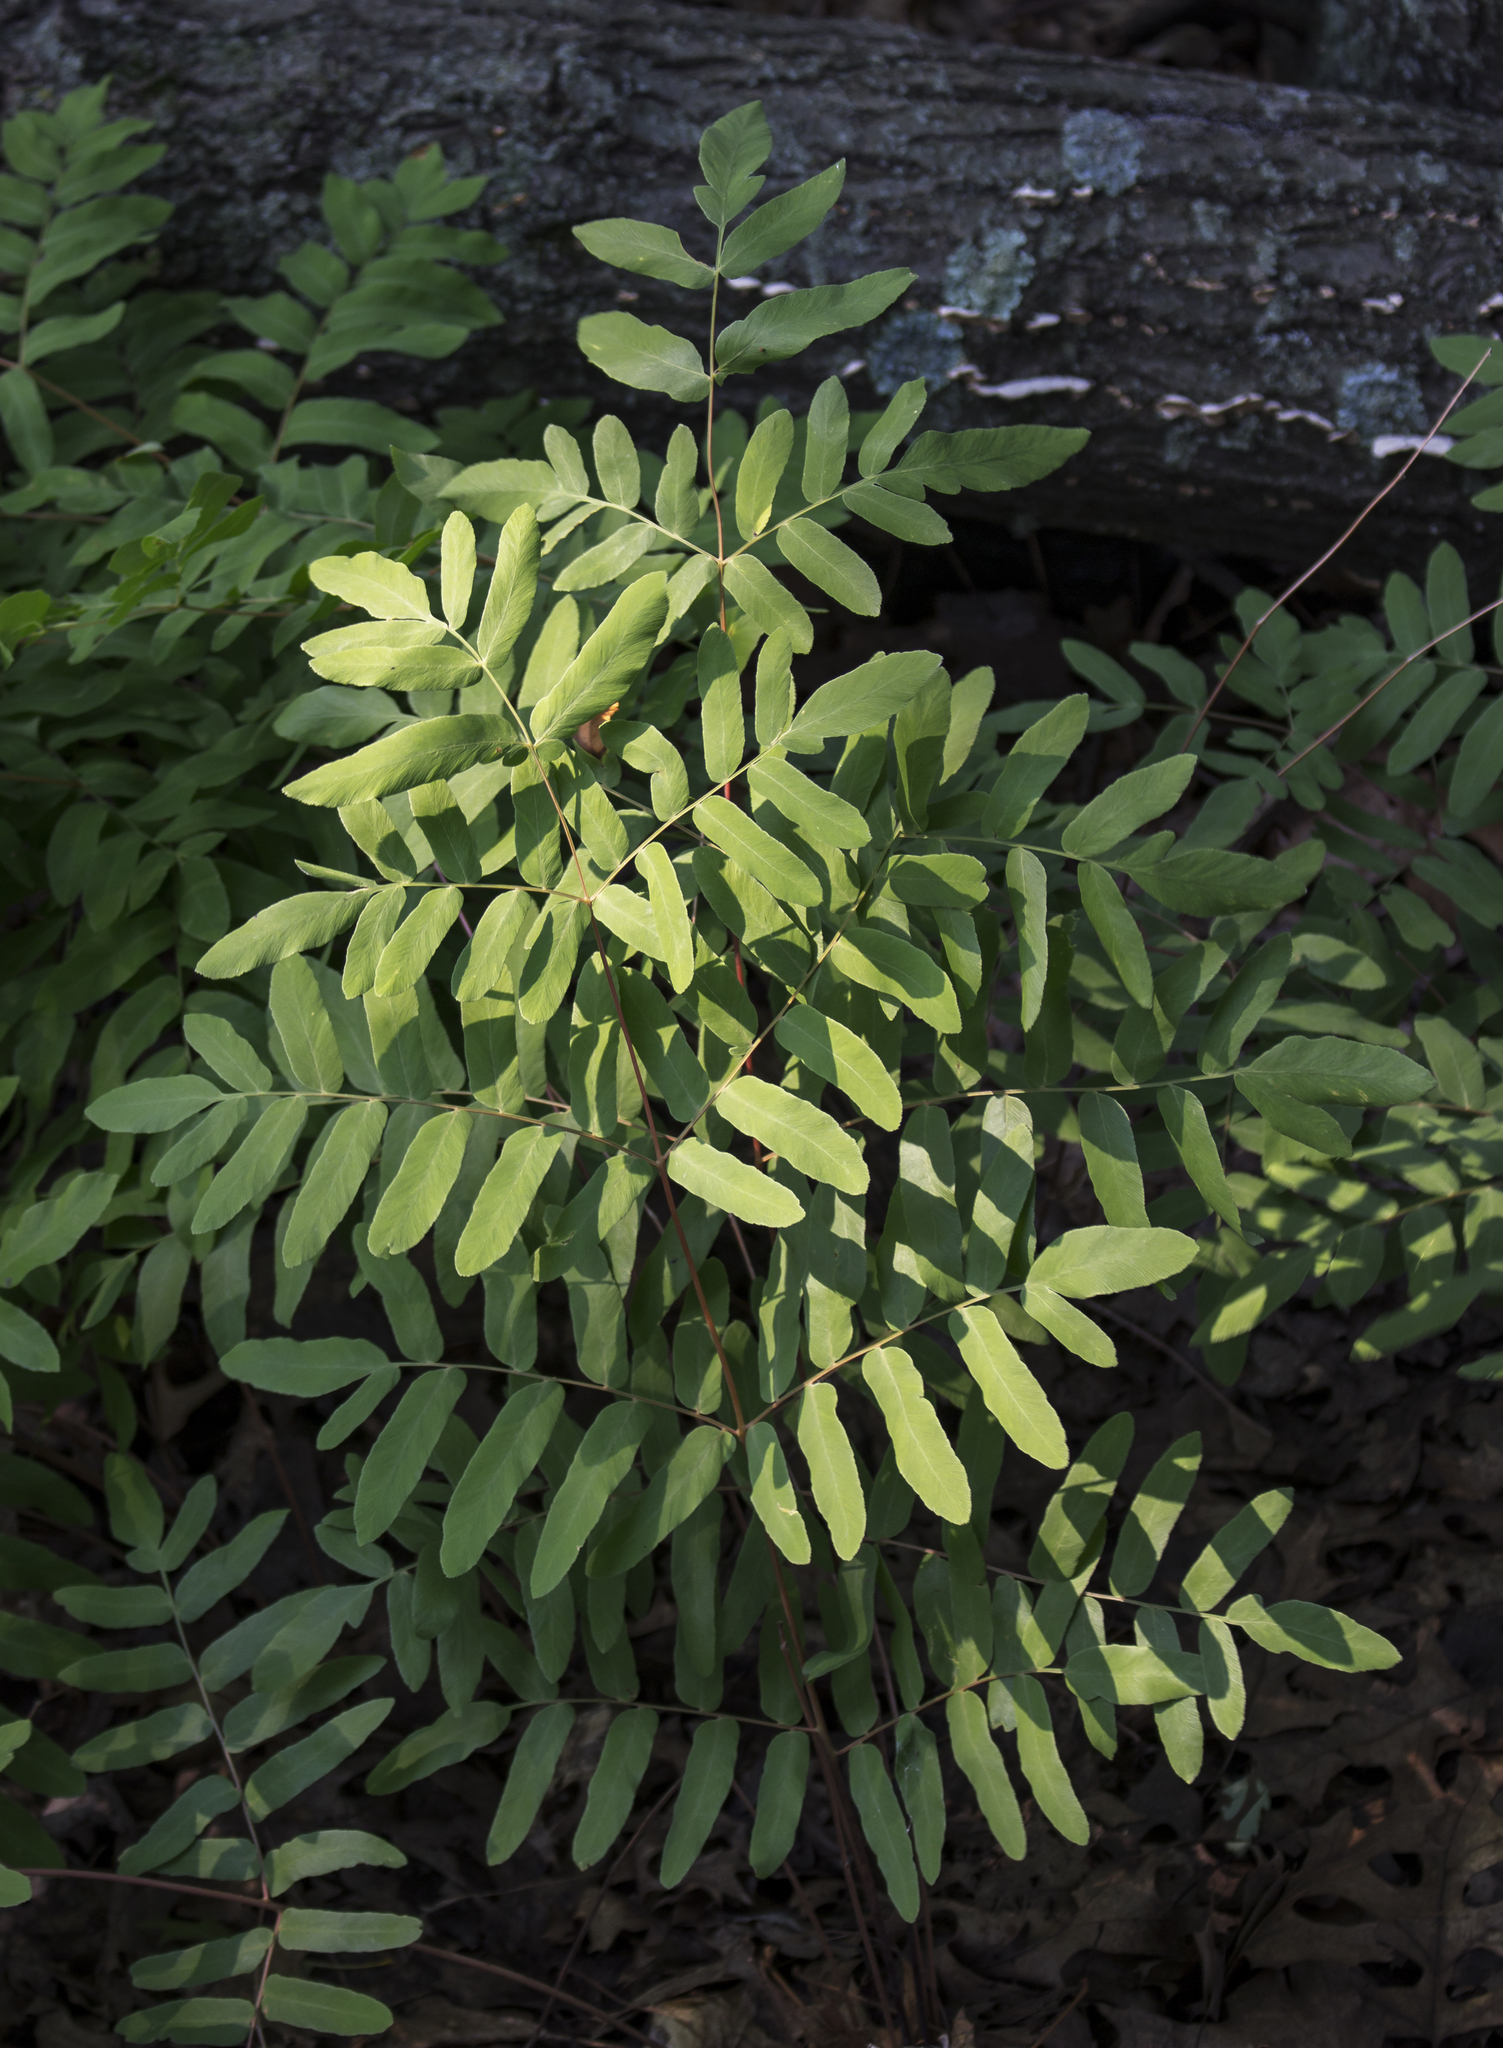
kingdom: Plantae
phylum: Tracheophyta
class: Polypodiopsida
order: Osmundales
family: Osmundaceae
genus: Osmunda
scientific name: Osmunda spectabilis
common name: American royal fern
